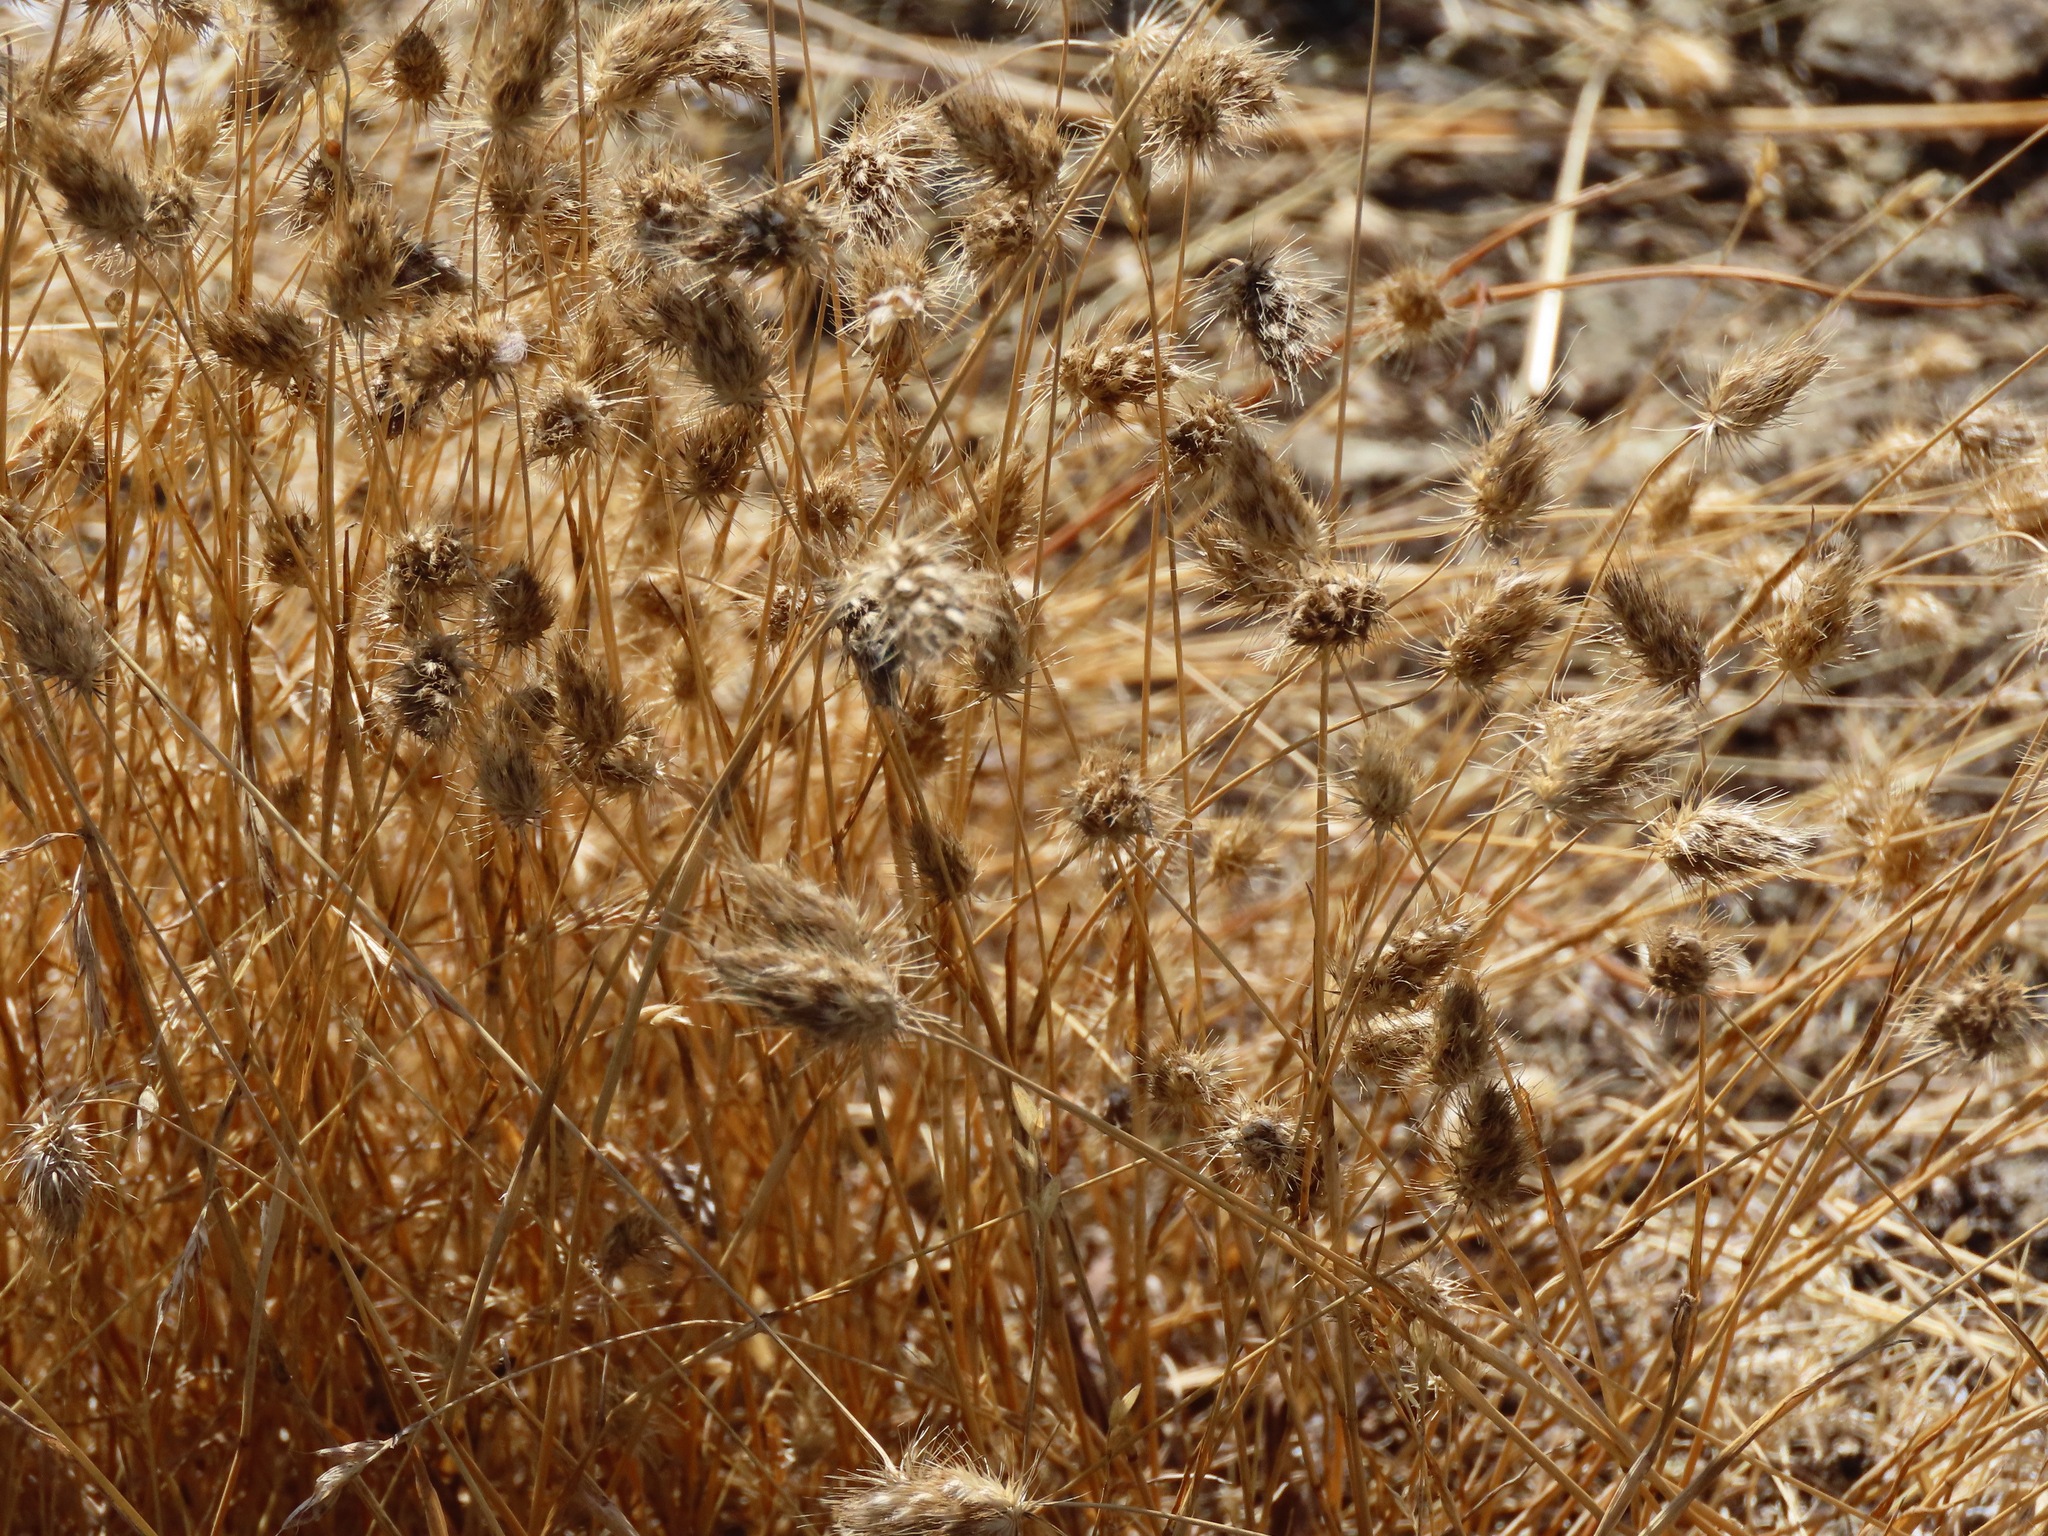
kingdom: Plantae
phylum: Tracheophyta
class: Liliopsida
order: Poales
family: Poaceae
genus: Cynosurus
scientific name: Cynosurus echinatus
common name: Rough dog's-tail
